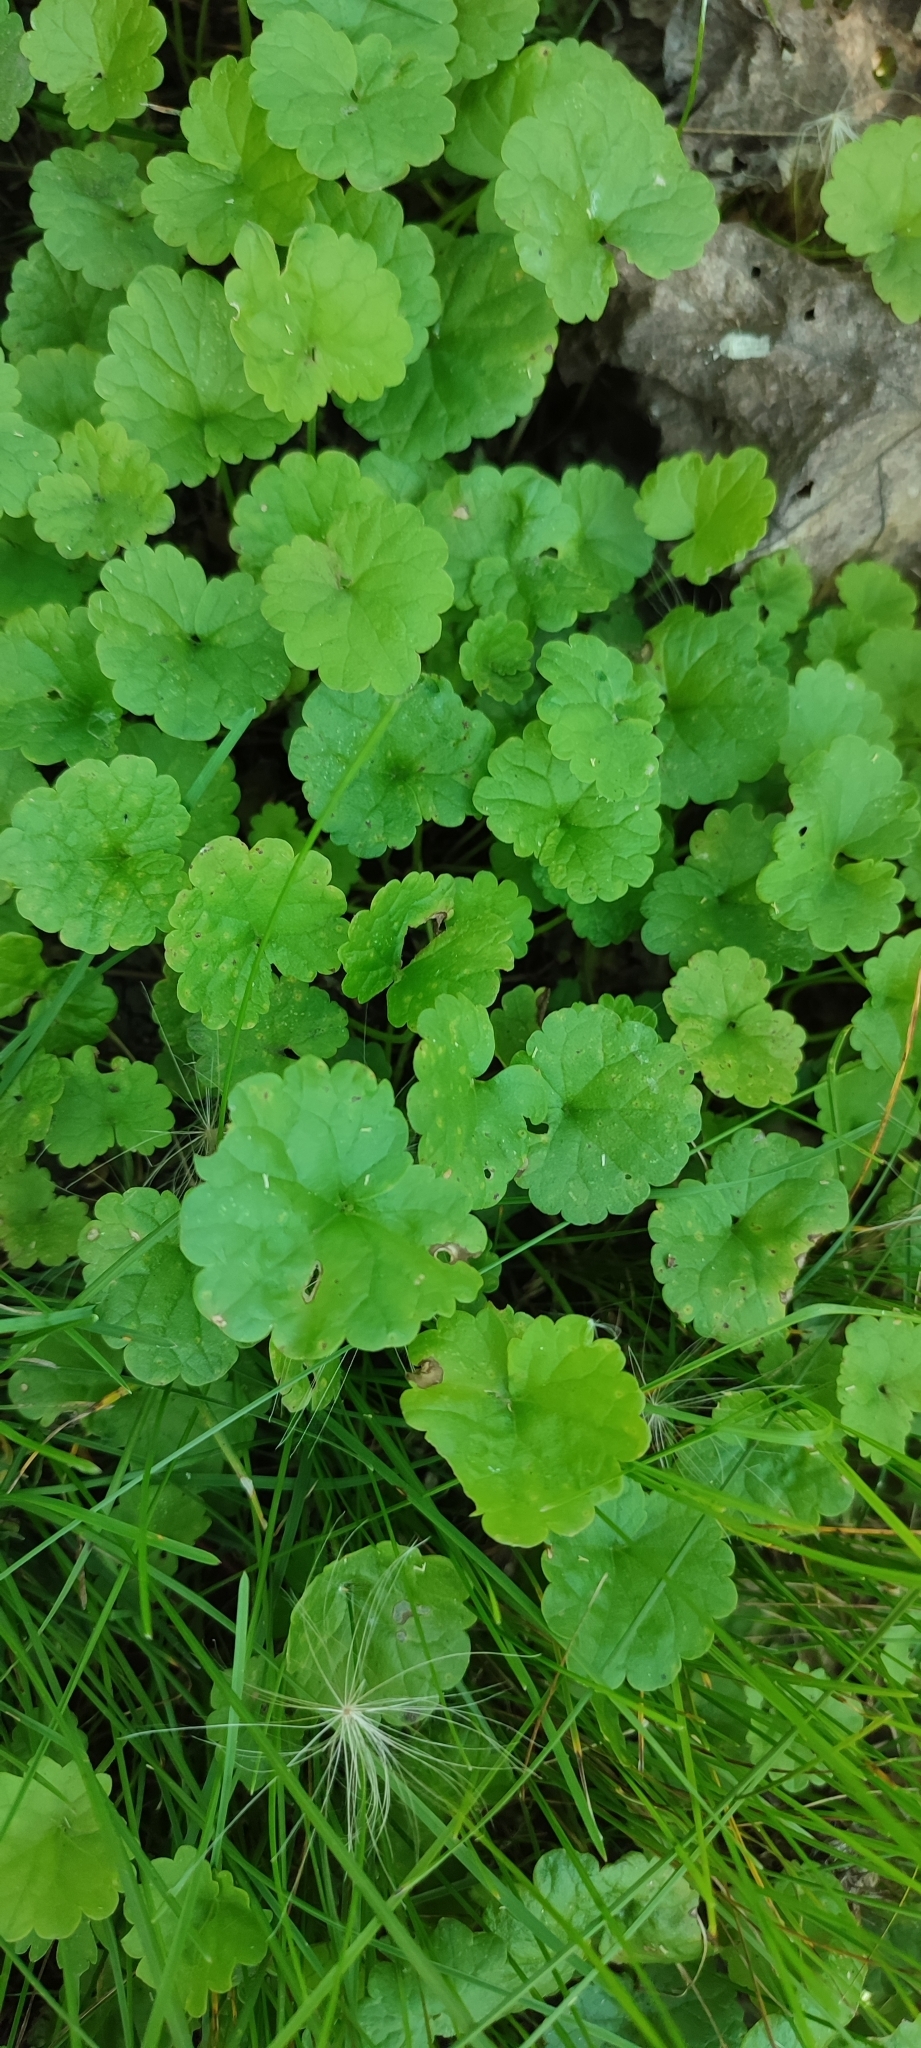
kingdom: Plantae
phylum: Tracheophyta
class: Magnoliopsida
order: Lamiales
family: Lamiaceae
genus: Glechoma
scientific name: Glechoma hederacea
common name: Ground ivy
